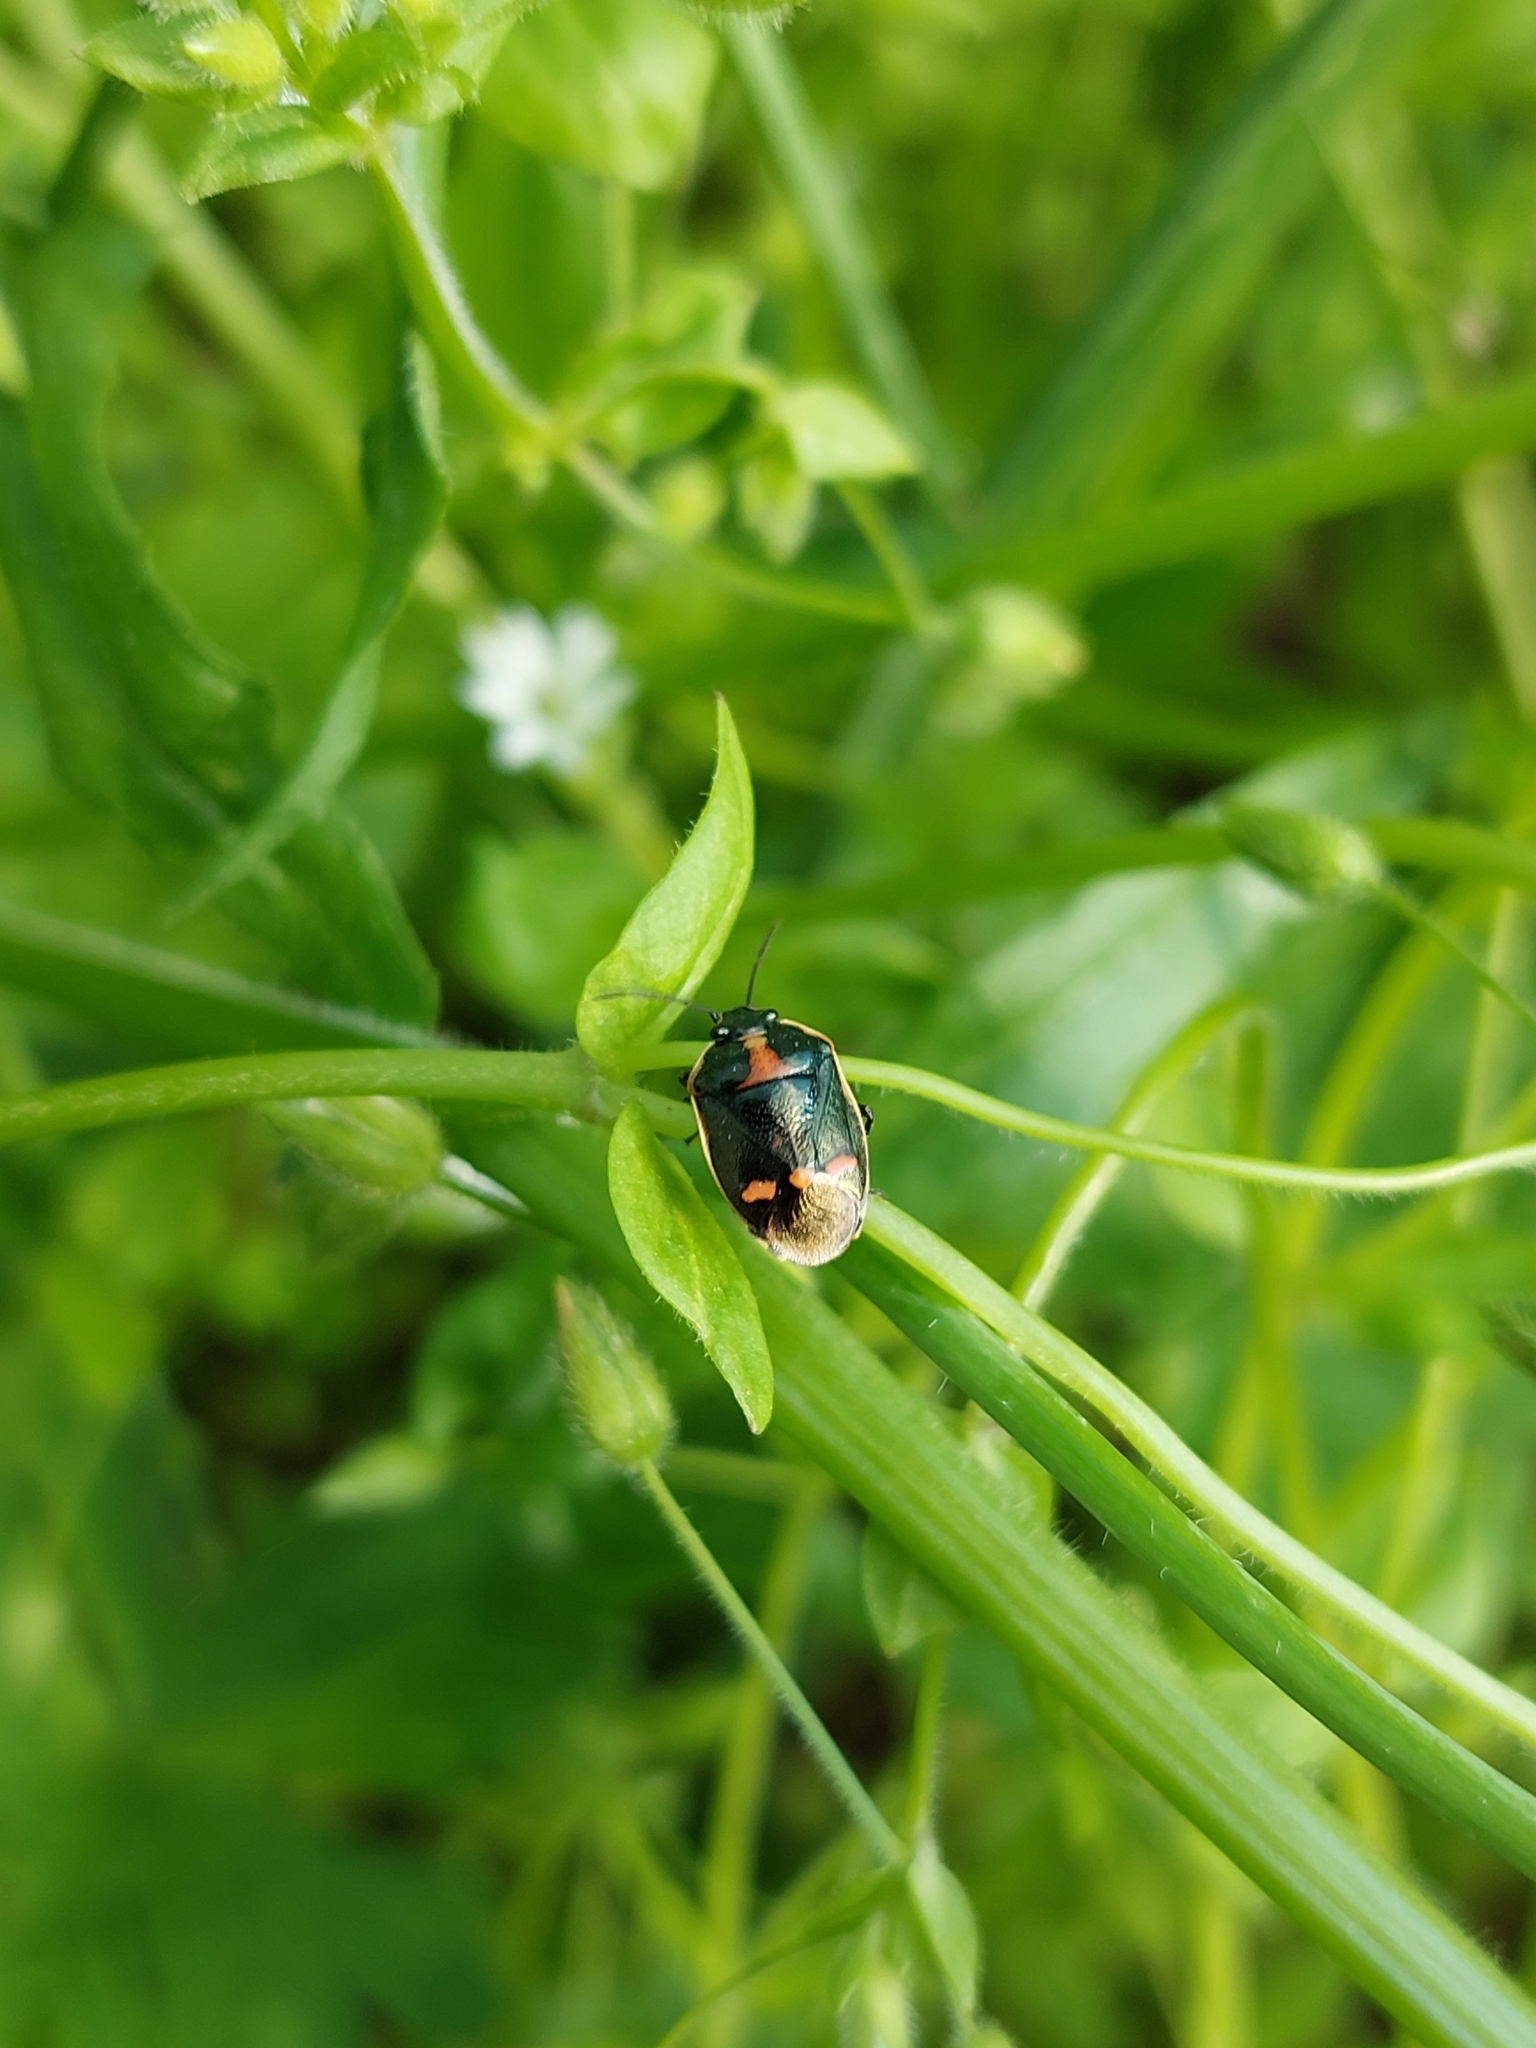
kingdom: Animalia
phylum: Arthropoda
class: Insecta
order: Hemiptera
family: Pentatomidae
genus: Eurydema
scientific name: Eurydema oleracea
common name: Cabbage bug
